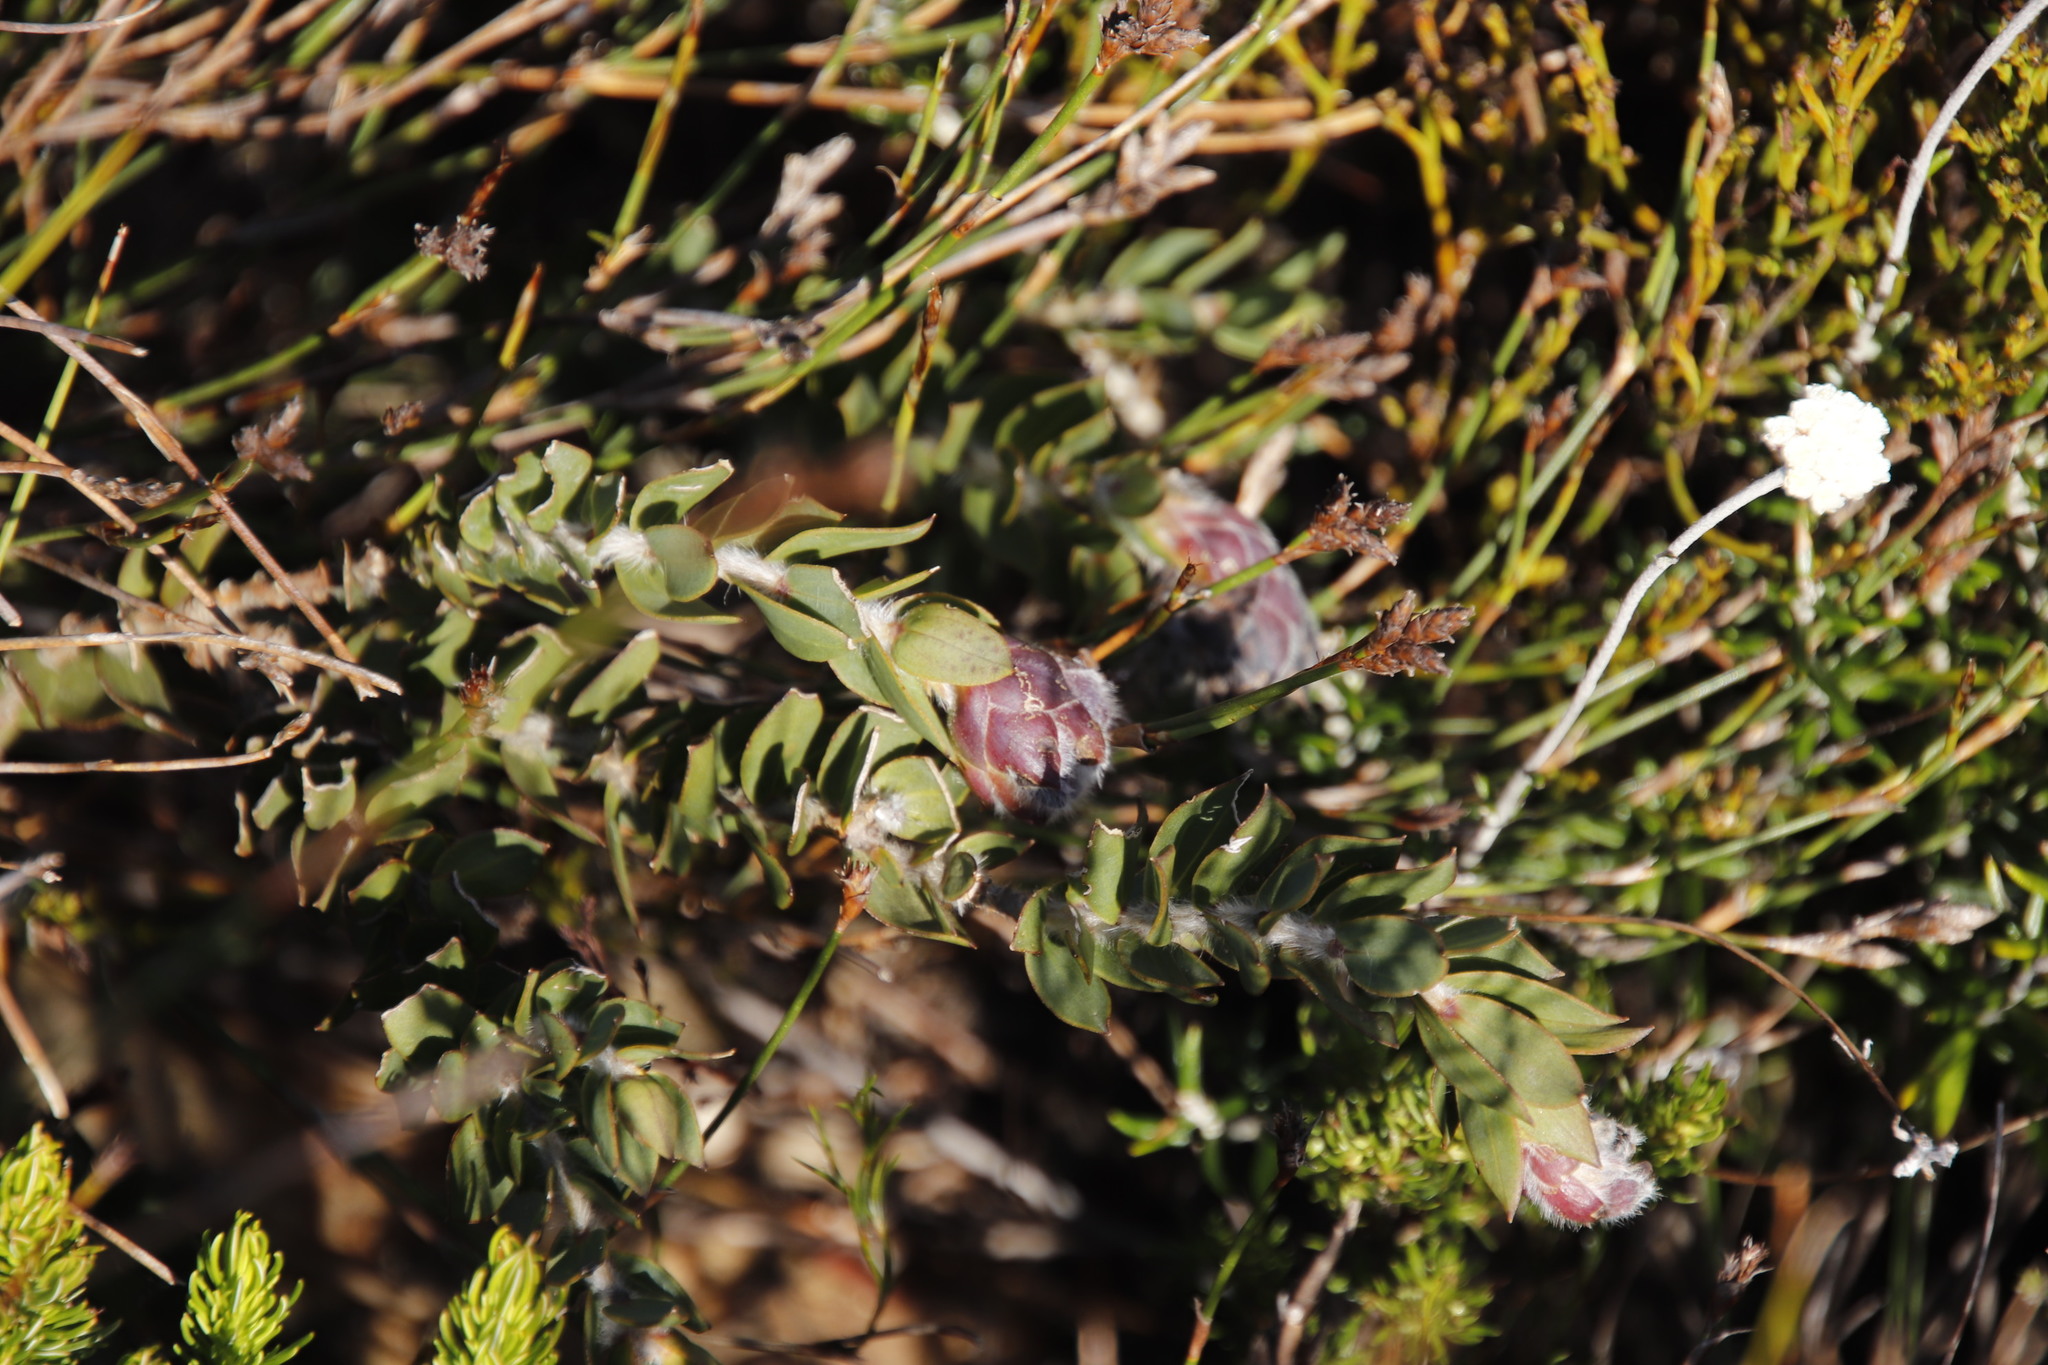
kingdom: Plantae
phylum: Tracheophyta
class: Magnoliopsida
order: Fabales
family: Fabaceae
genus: Liparia
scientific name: Liparia parva
